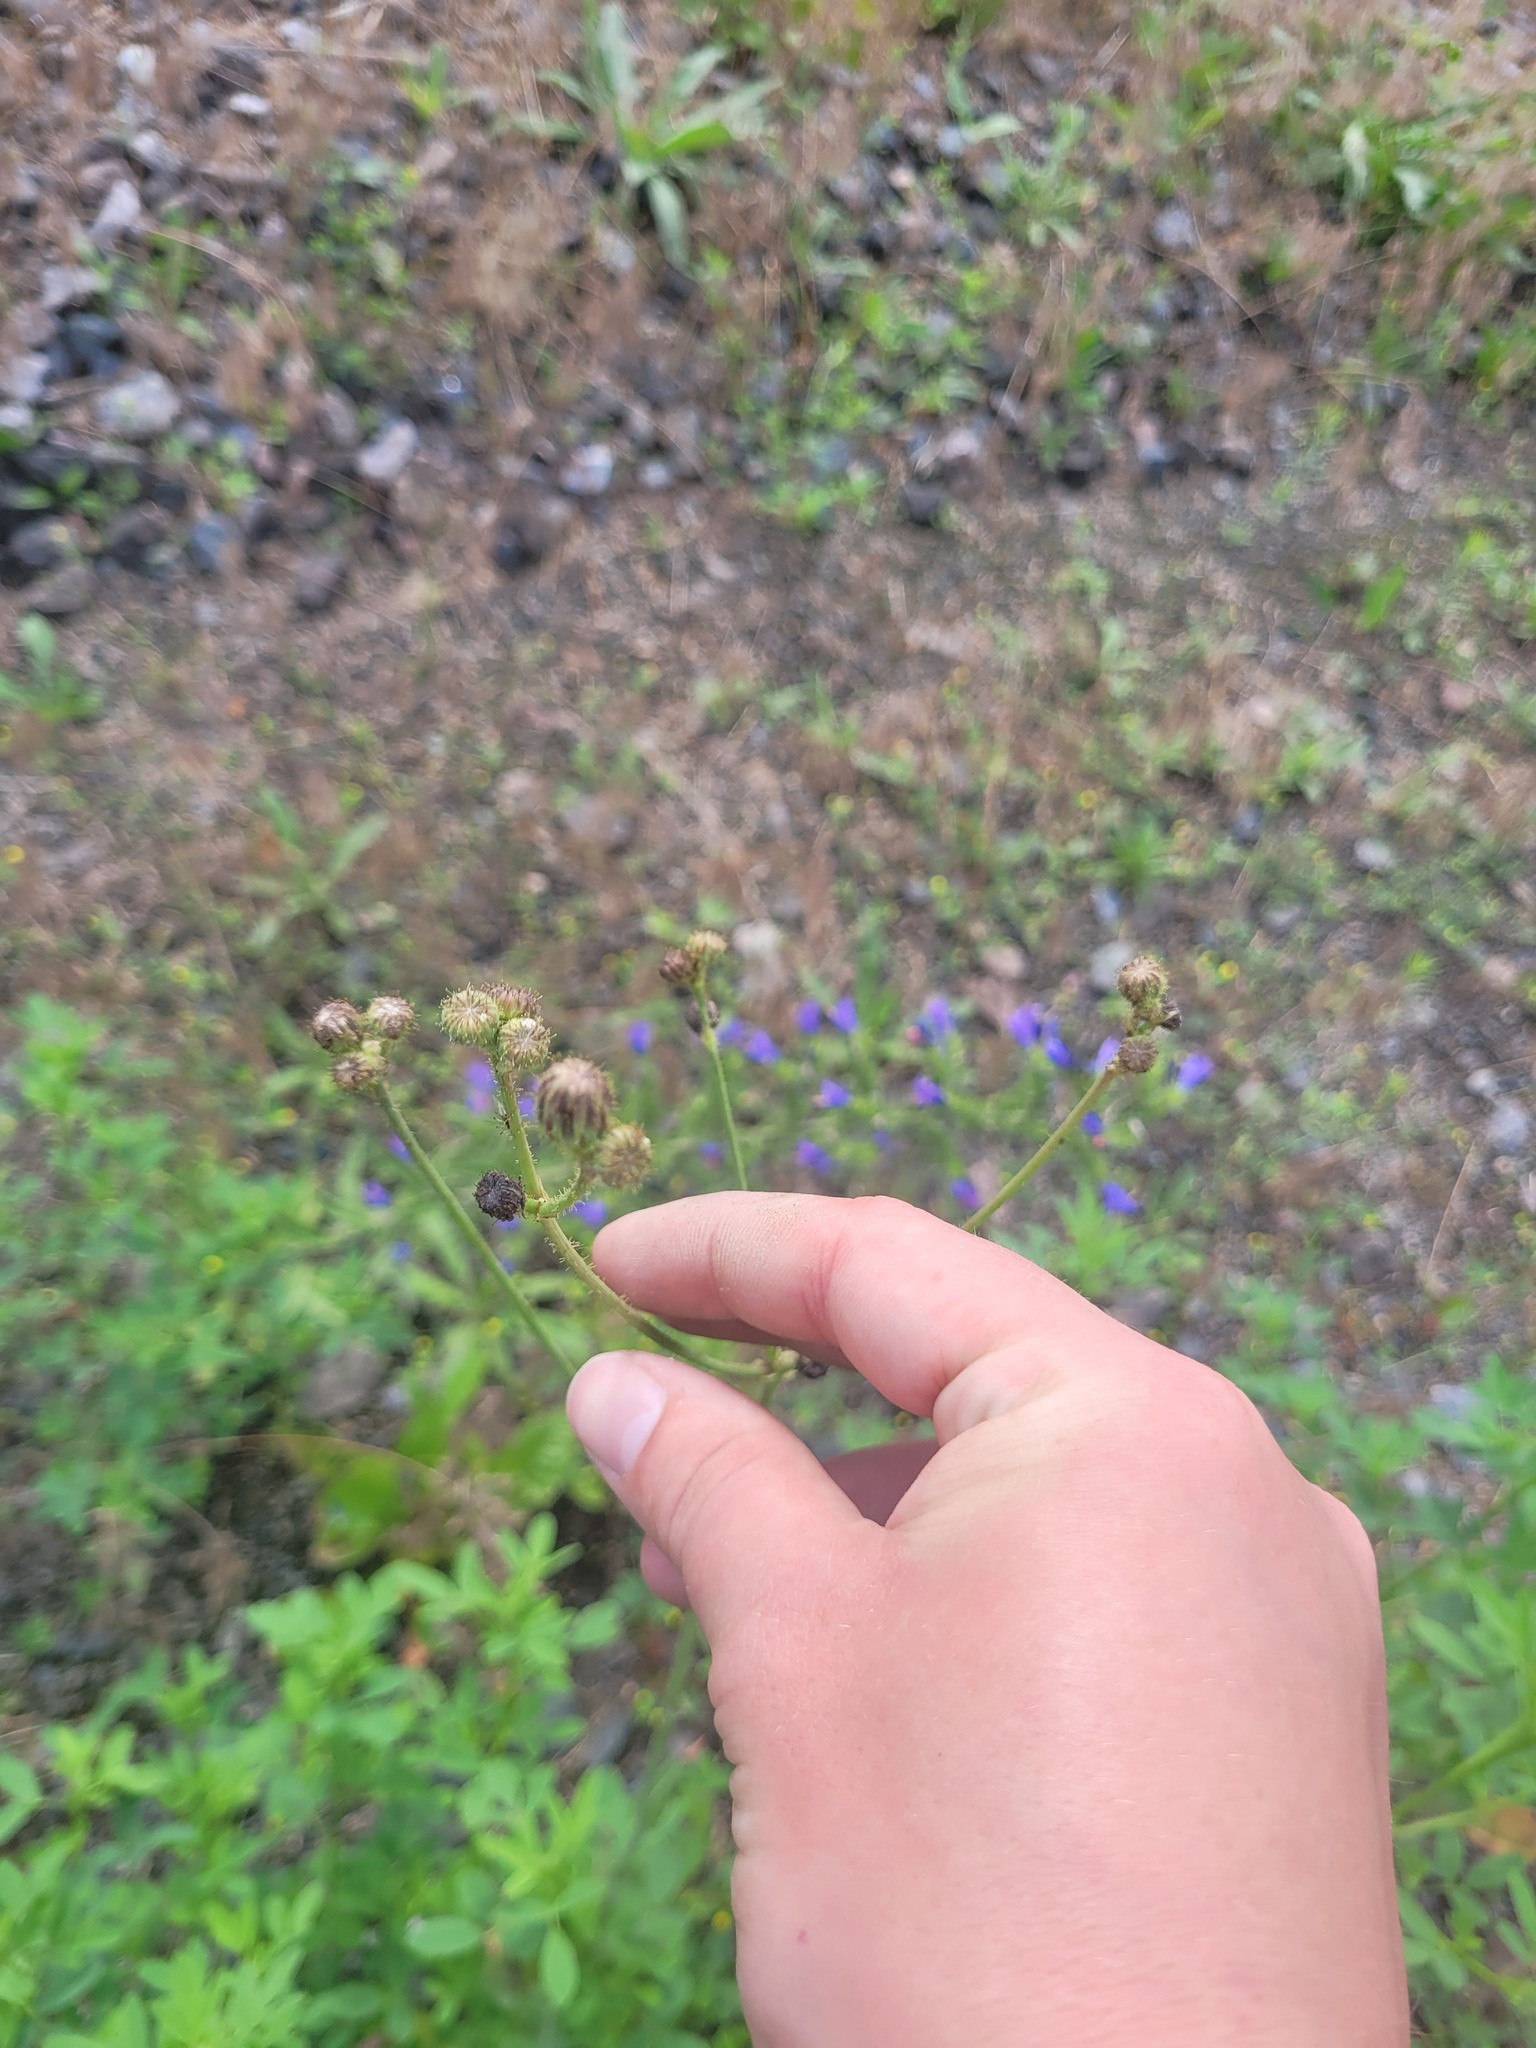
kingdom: Plantae
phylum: Tracheophyta
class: Magnoliopsida
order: Asterales
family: Asteraceae
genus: Sonchus
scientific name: Sonchus arvensis
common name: Perennial sow-thistle
